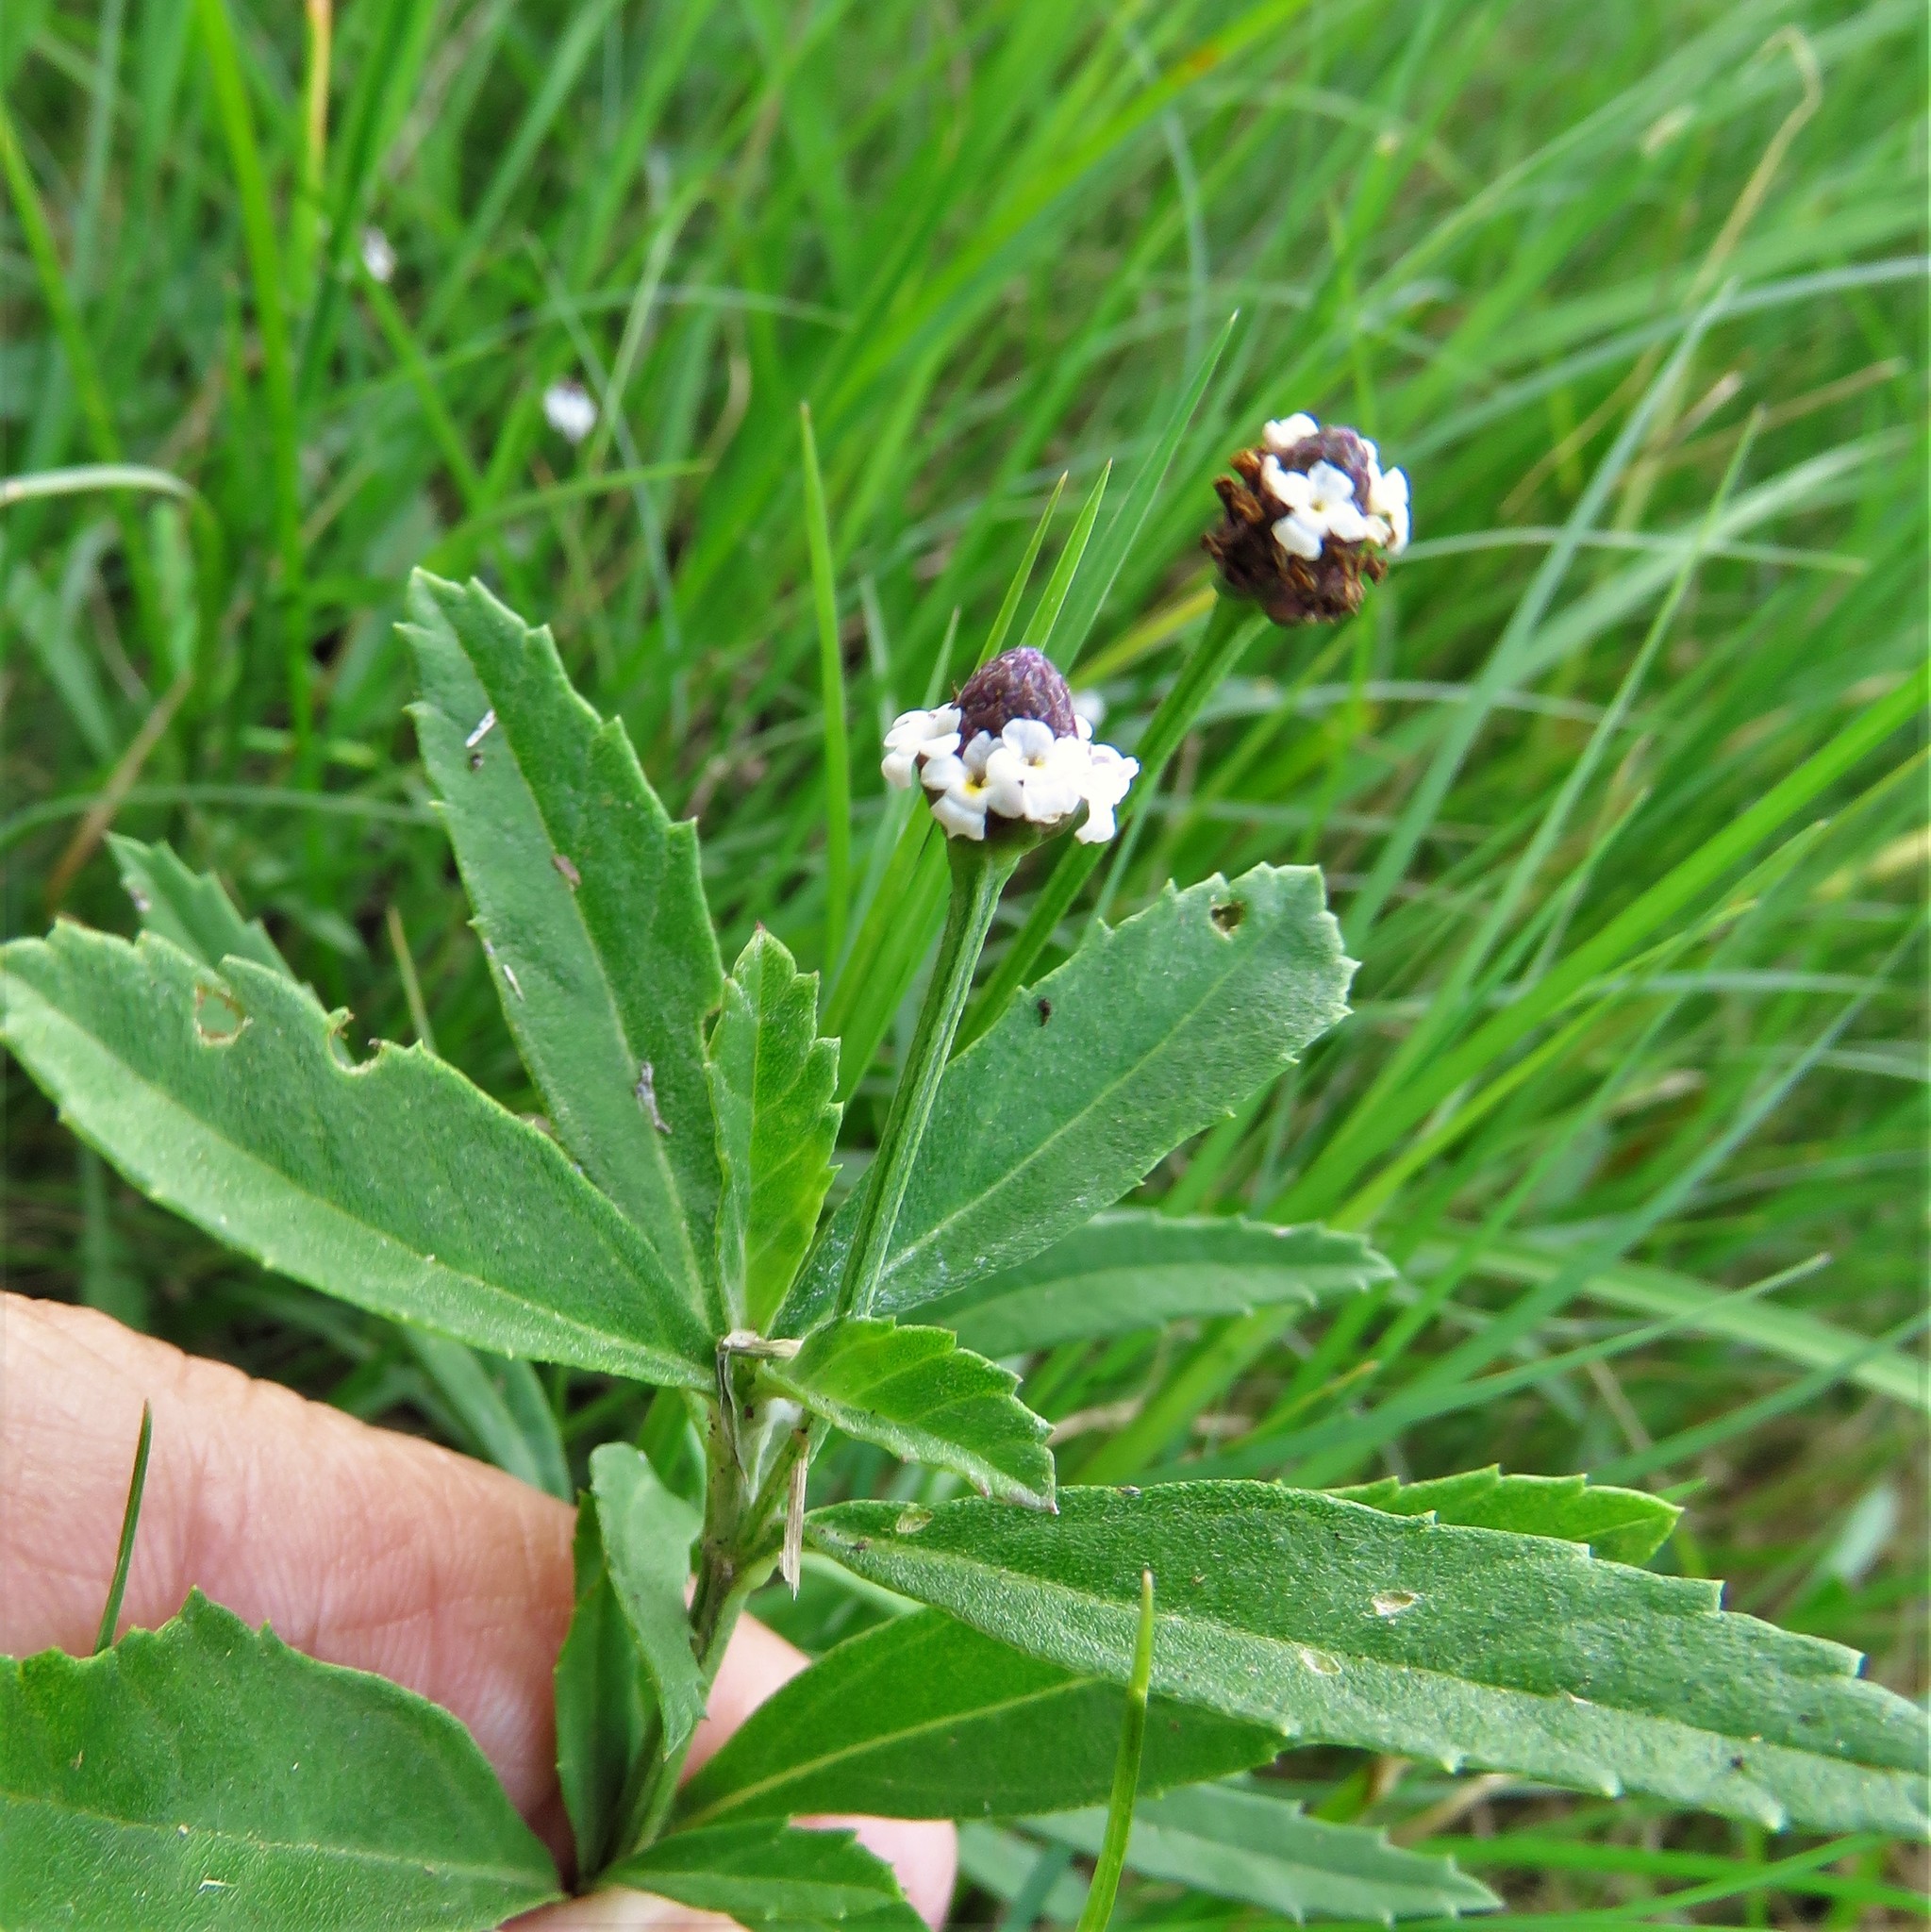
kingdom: Plantae
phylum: Tracheophyta
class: Magnoliopsida
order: Lamiales
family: Verbenaceae
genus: Phyla
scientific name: Phyla nodiflora
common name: Frogfruit
